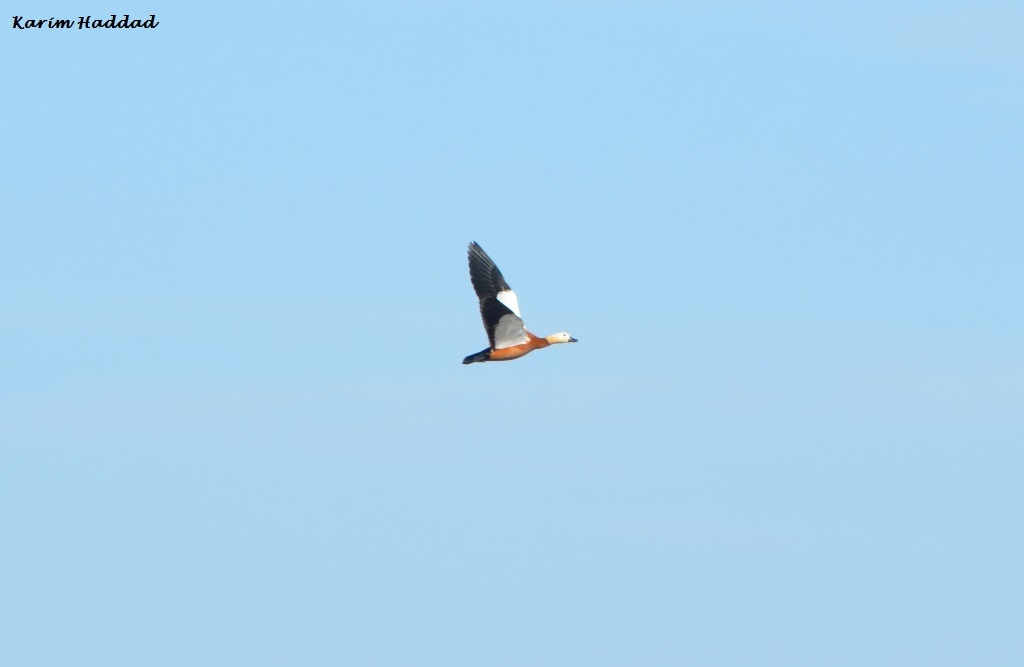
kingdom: Animalia
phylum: Chordata
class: Aves
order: Anseriformes
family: Anatidae
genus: Tadorna
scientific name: Tadorna ferruginea
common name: Ruddy shelduck
